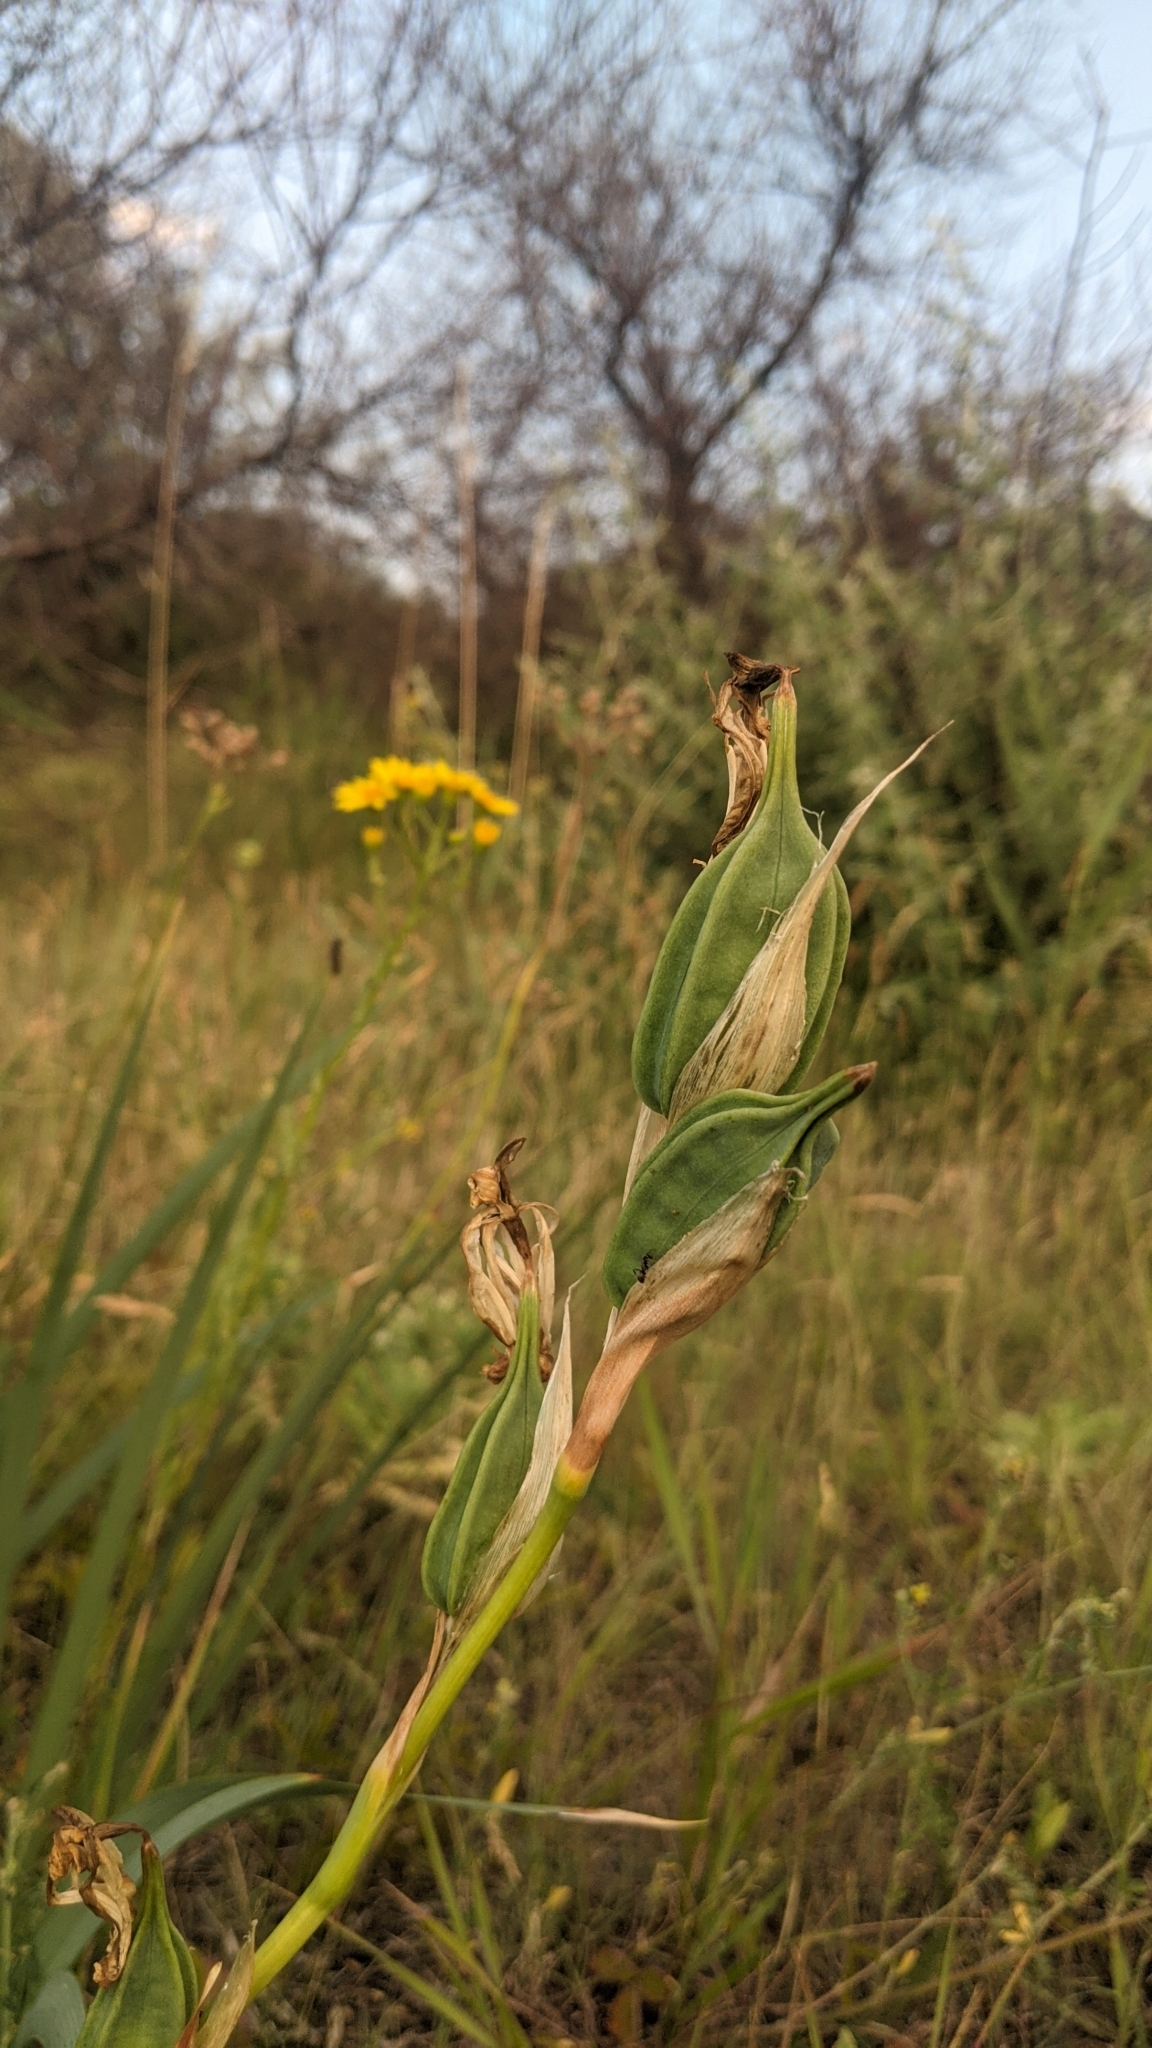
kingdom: Plantae
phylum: Tracheophyta
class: Liliopsida
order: Asparagales
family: Iridaceae
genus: Iris
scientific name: Iris halophila
